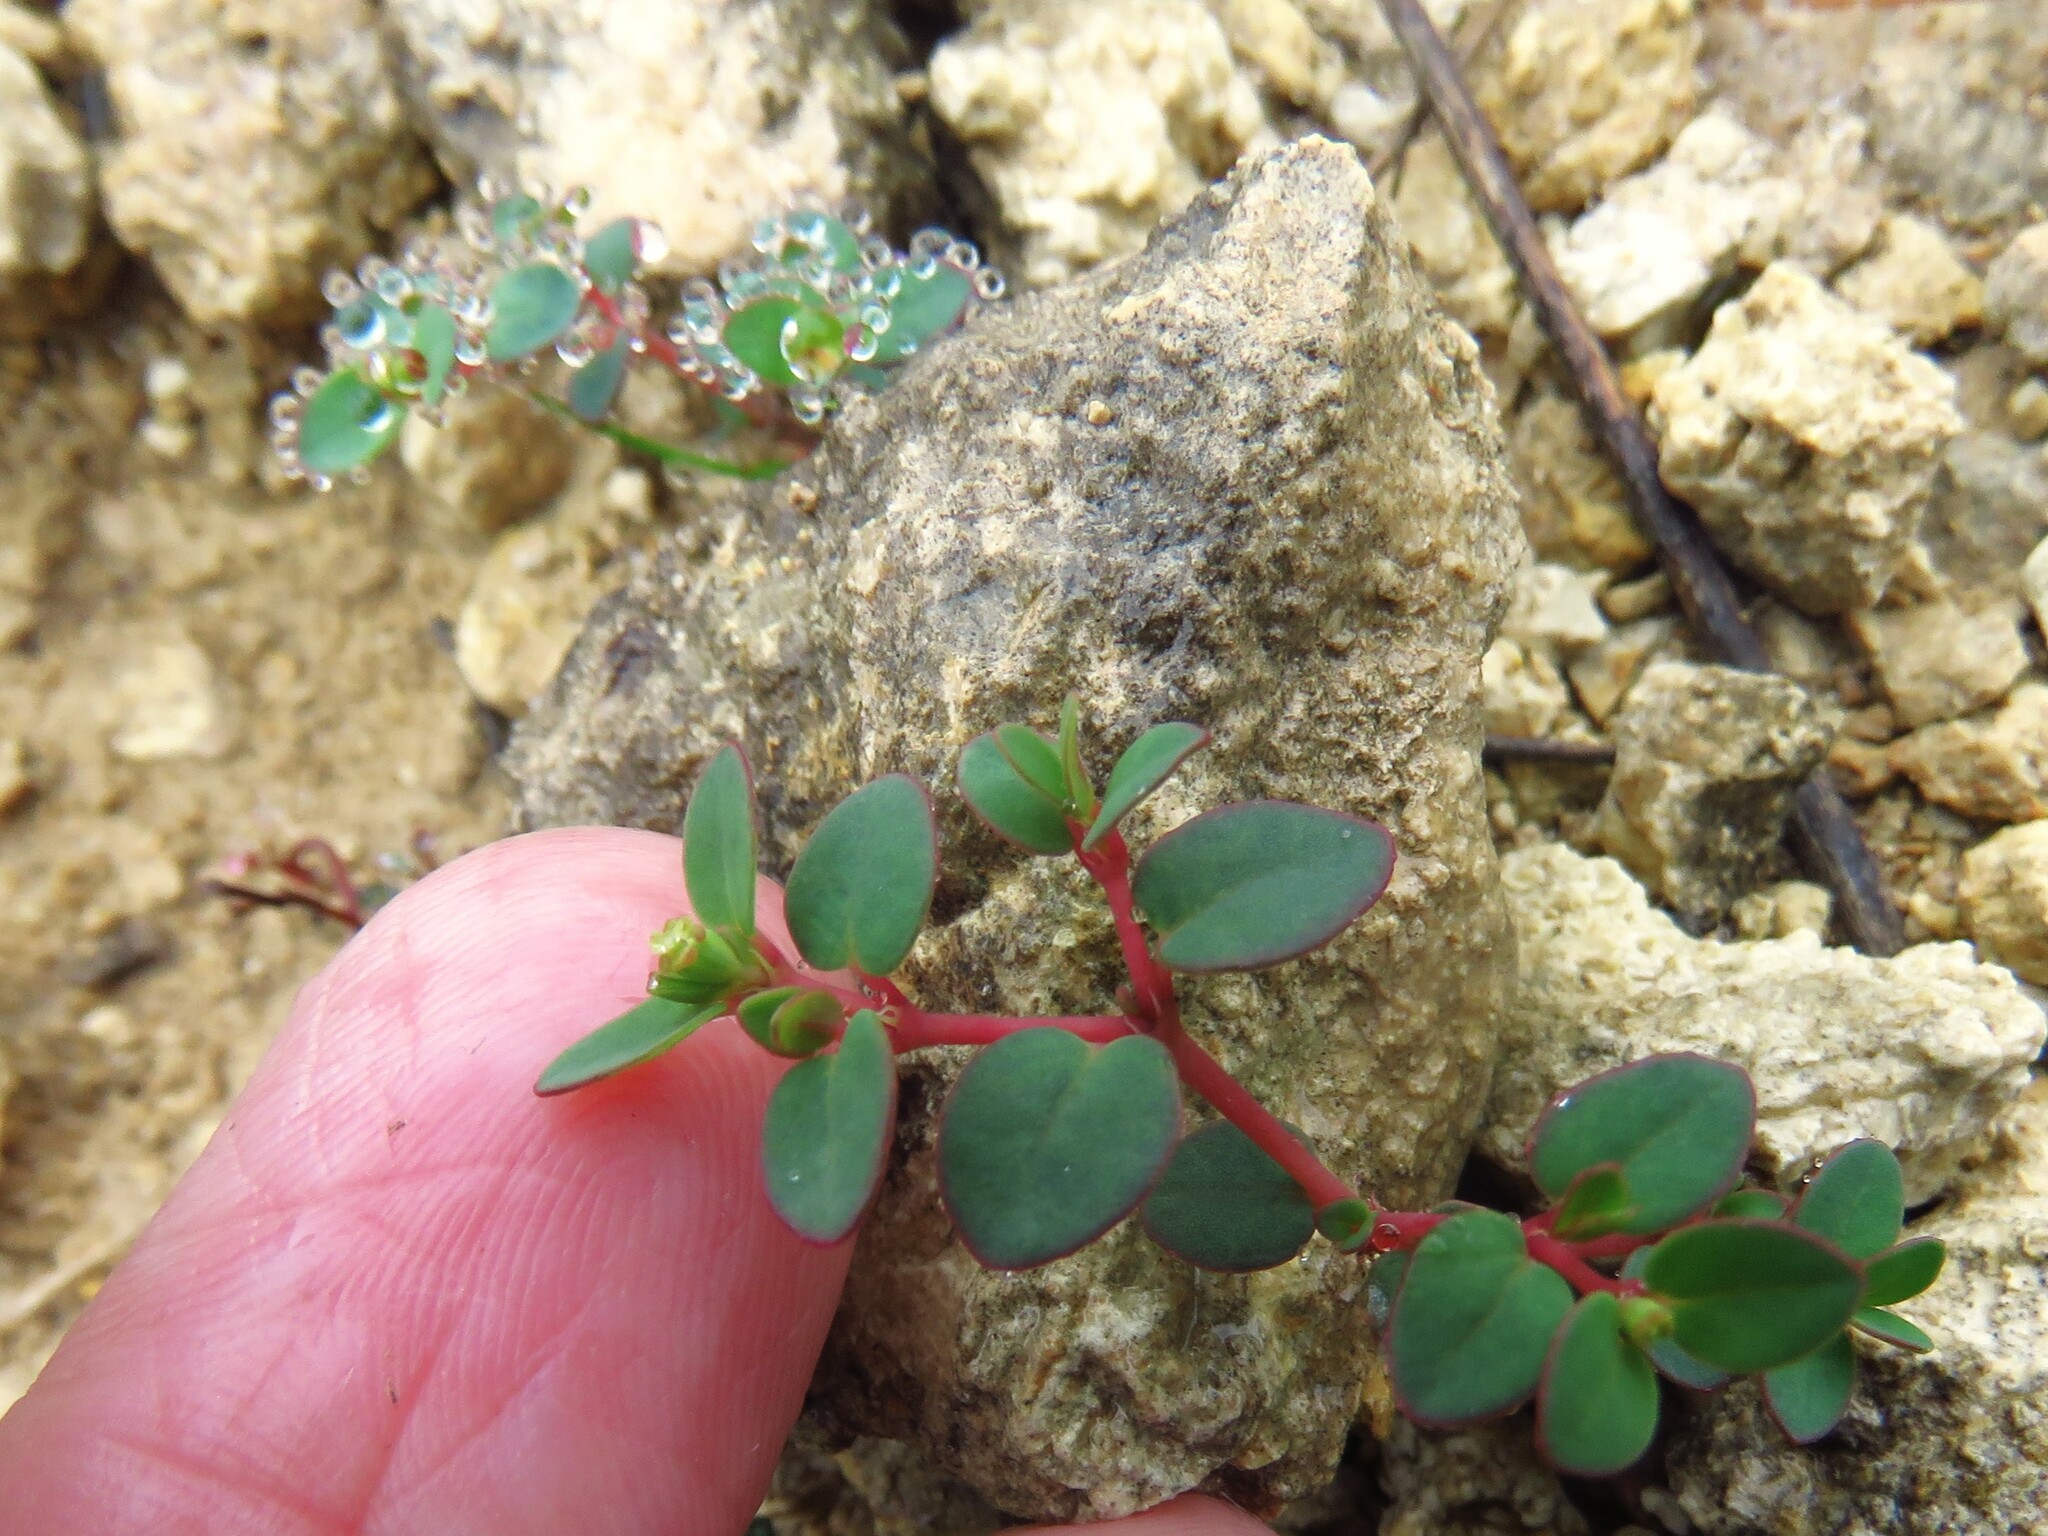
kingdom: Plantae
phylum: Tracheophyta
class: Magnoliopsida
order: Malpighiales
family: Euphorbiaceae
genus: Euphorbia
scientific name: Euphorbia fendleri
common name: Fendler's euphorbia
